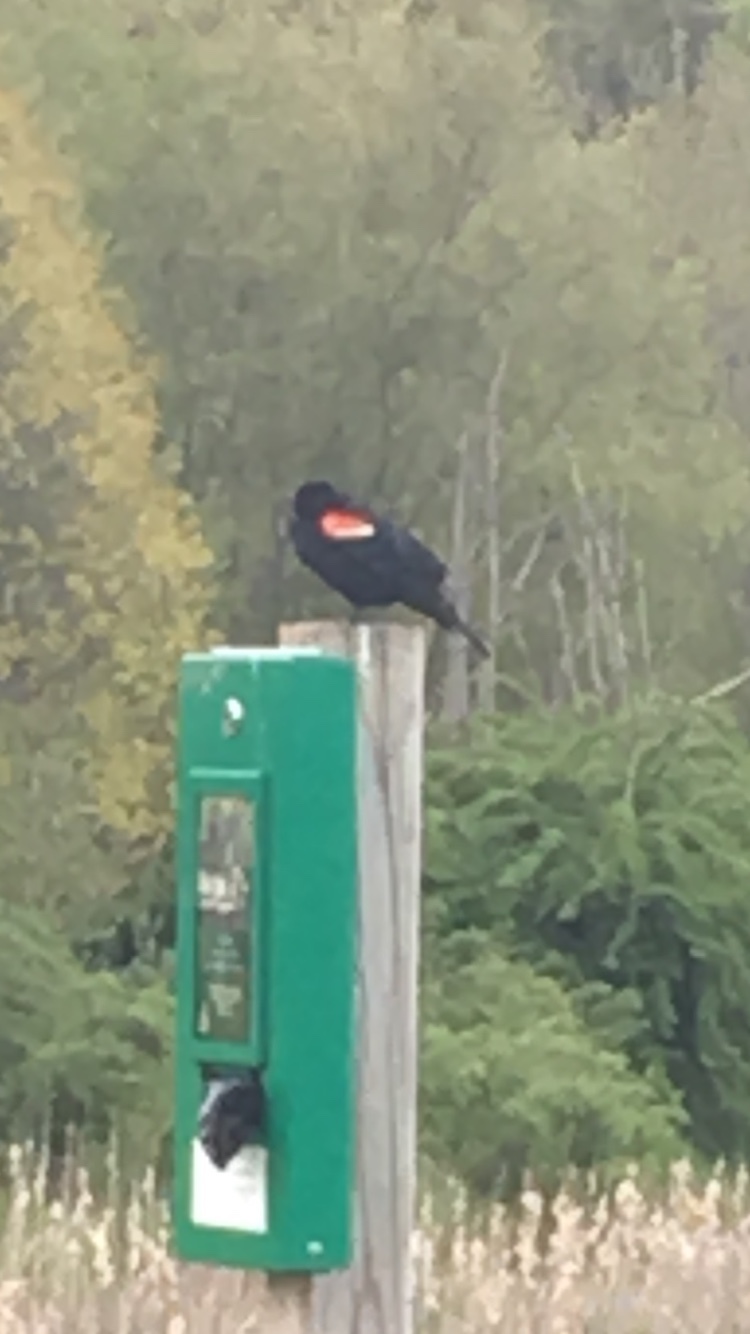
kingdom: Animalia
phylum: Chordata
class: Aves
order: Passeriformes
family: Icteridae
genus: Agelaius
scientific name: Agelaius phoeniceus
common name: Red-winged blackbird
